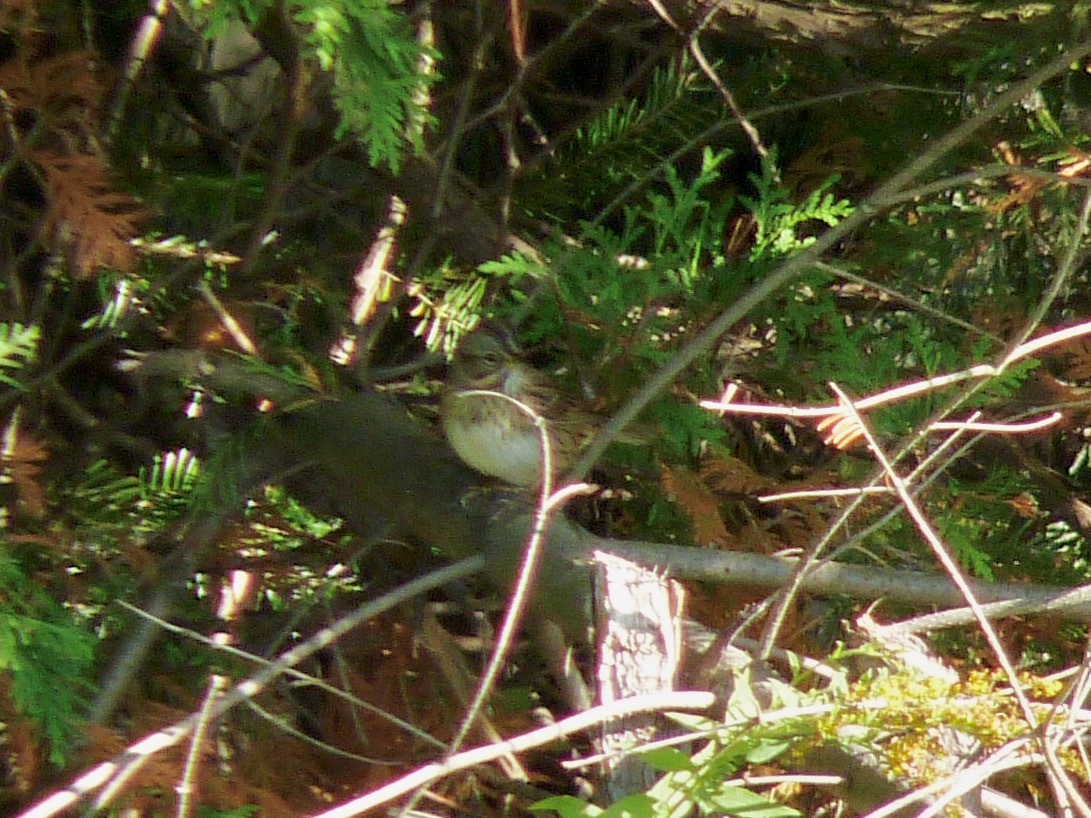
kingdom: Animalia
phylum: Chordata
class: Aves
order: Passeriformes
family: Passerellidae
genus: Melospiza
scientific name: Melospiza lincolnii
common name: Lincoln's sparrow
